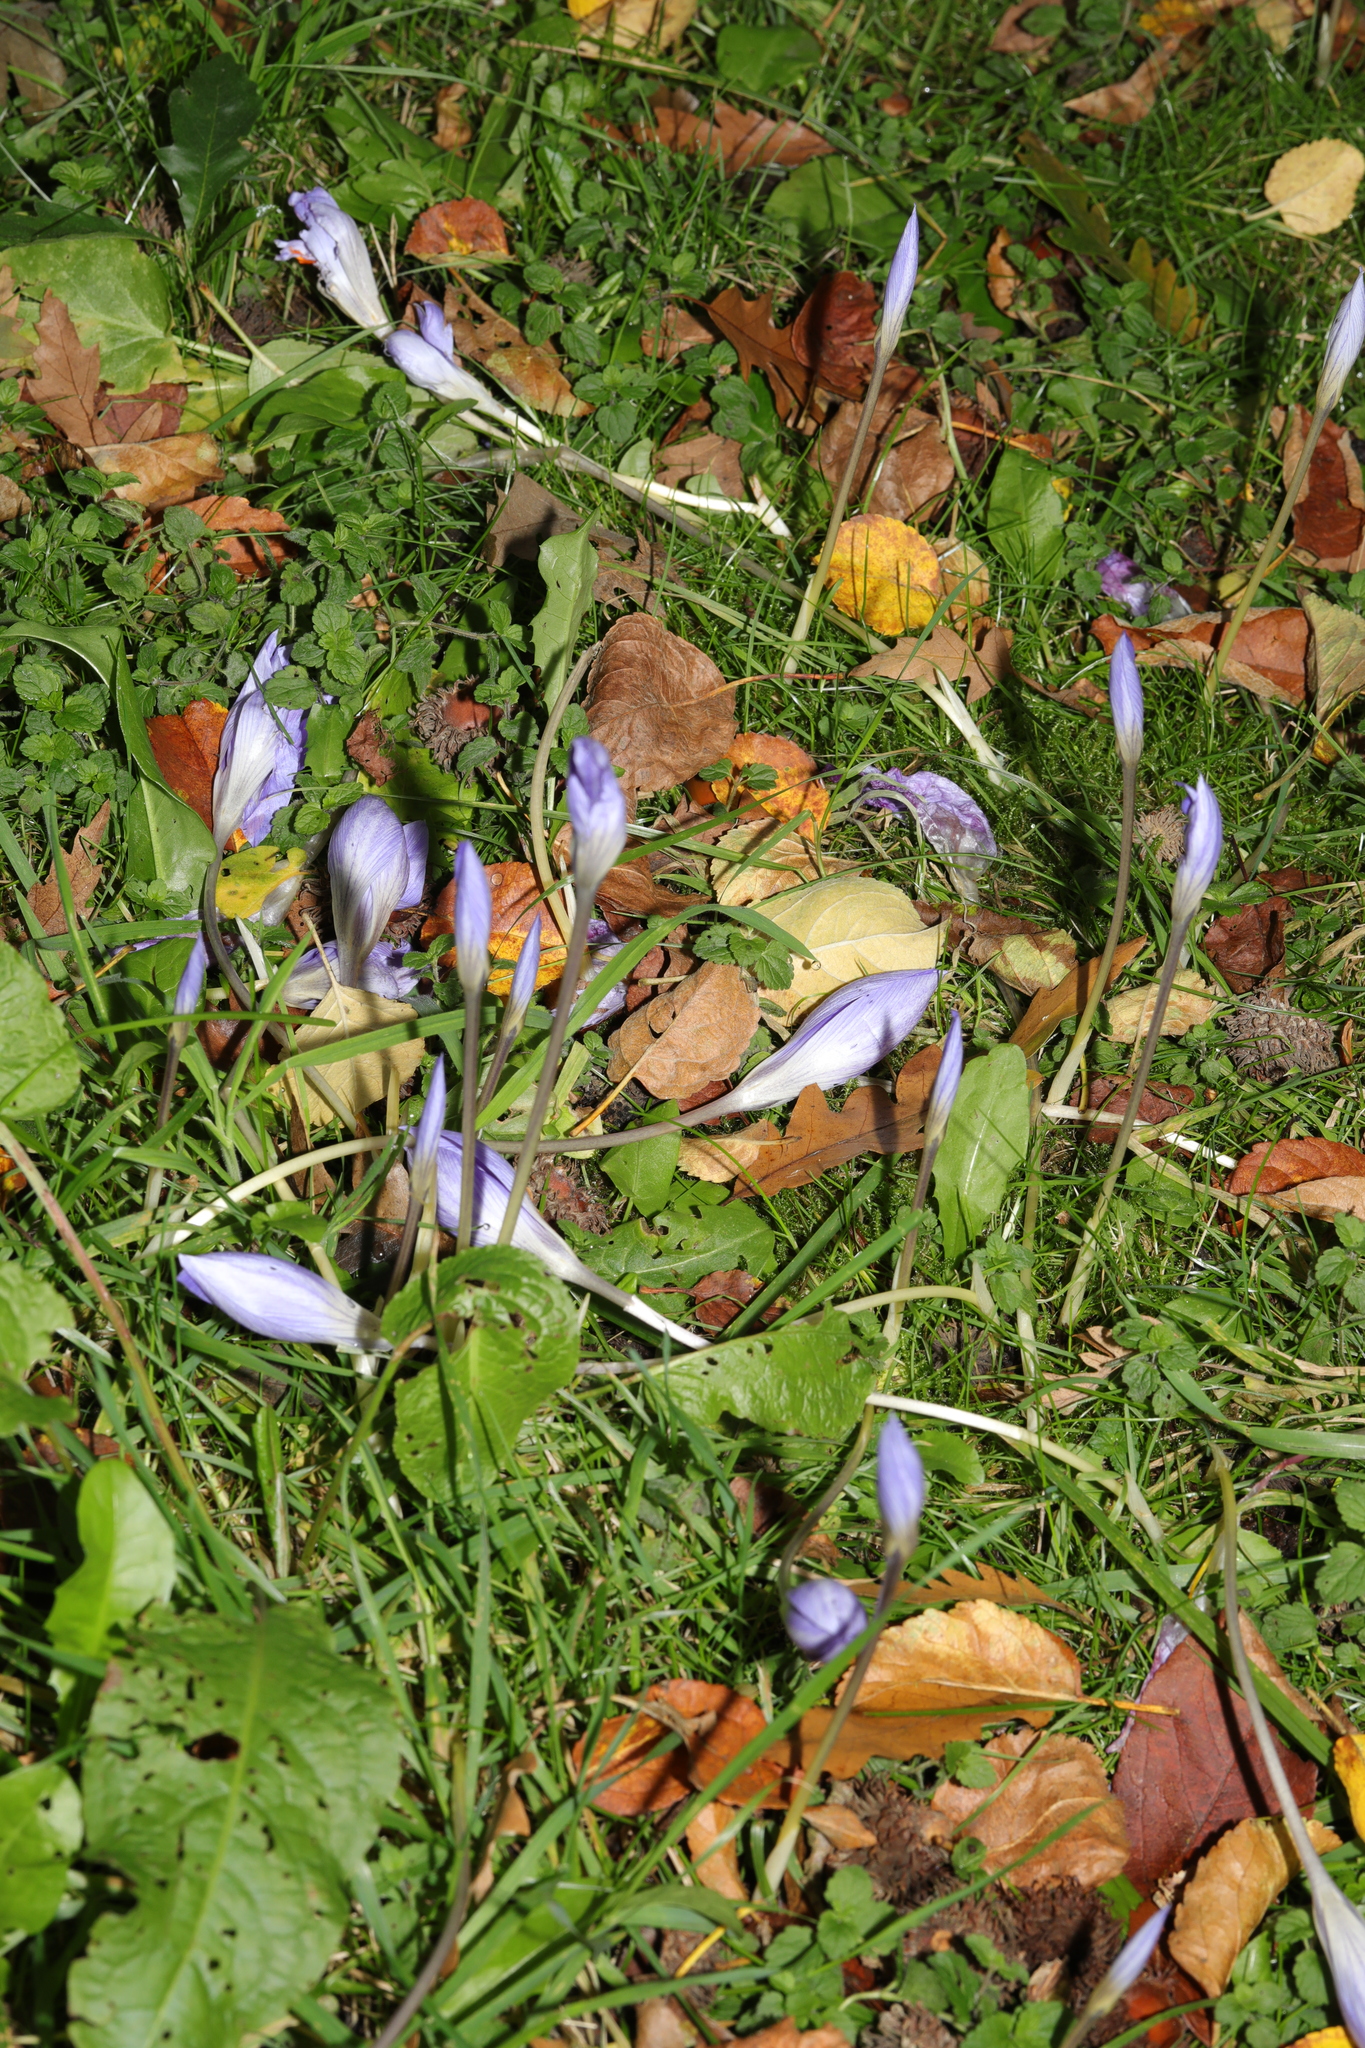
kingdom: Plantae
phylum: Tracheophyta
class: Liliopsida
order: Asparagales
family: Iridaceae
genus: Crocus
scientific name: Crocus speciosus
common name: Bieberstein's crocus
